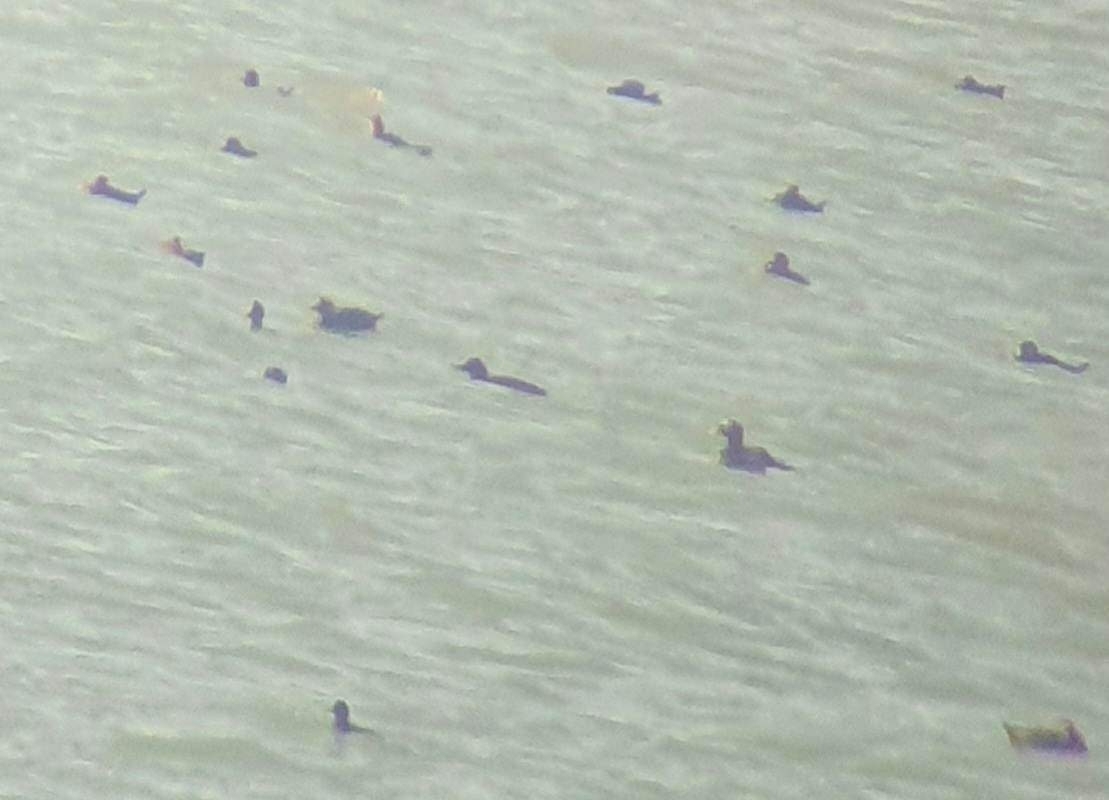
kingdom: Animalia
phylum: Chordata
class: Aves
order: Anseriformes
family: Anatidae
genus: Melanitta
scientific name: Melanitta perspicillata
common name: Surf scoter
